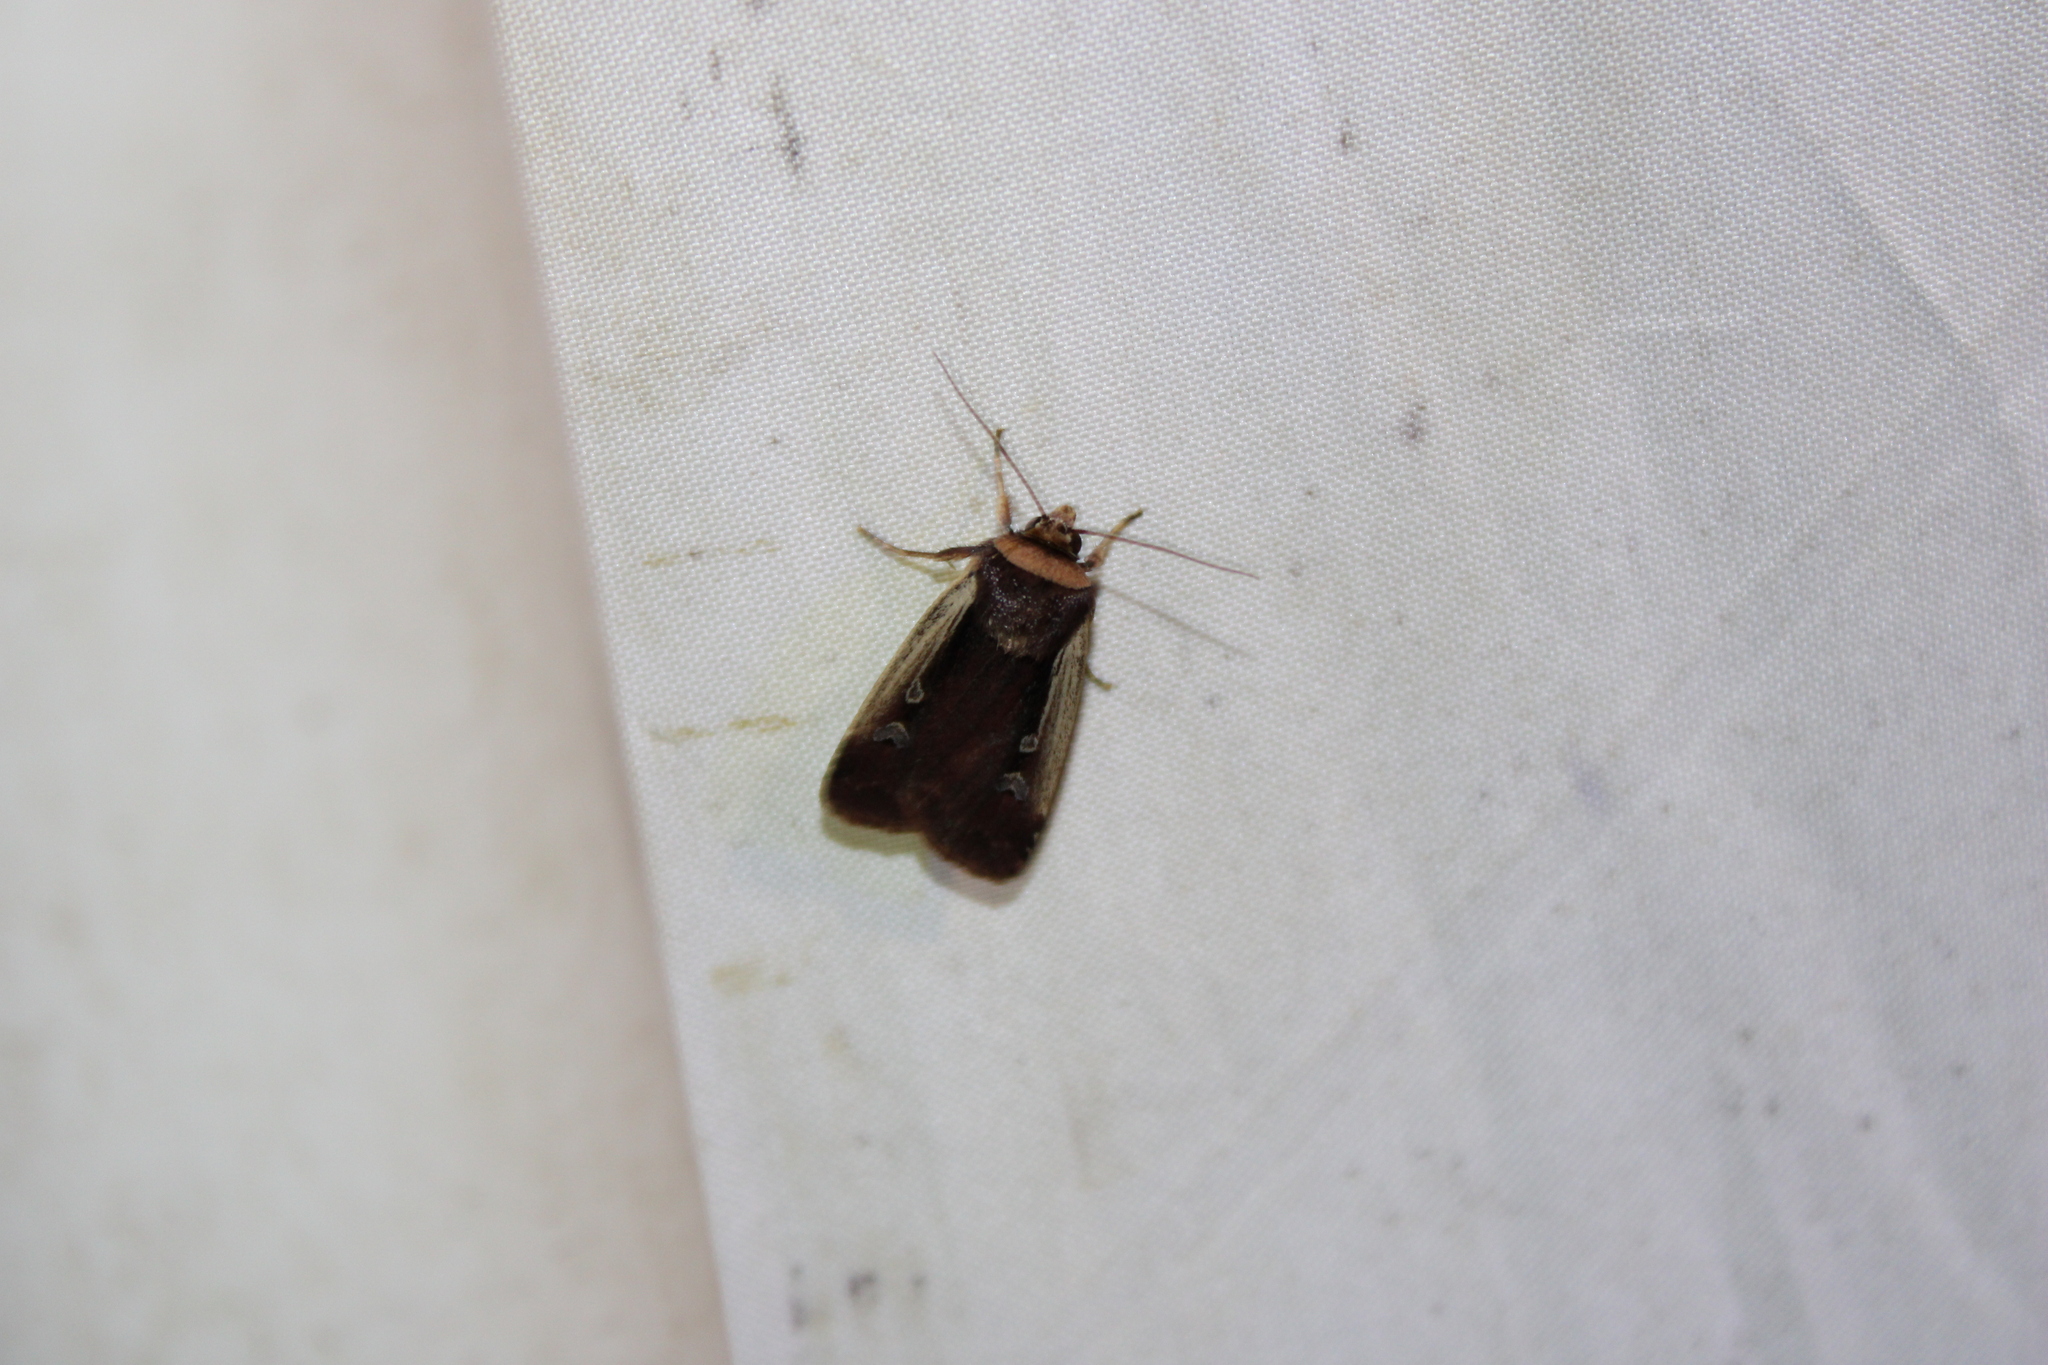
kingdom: Animalia
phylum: Arthropoda
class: Insecta
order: Lepidoptera
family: Noctuidae
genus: Ochropleura
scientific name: Ochropleura implecta
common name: Flame-shouldered dart
